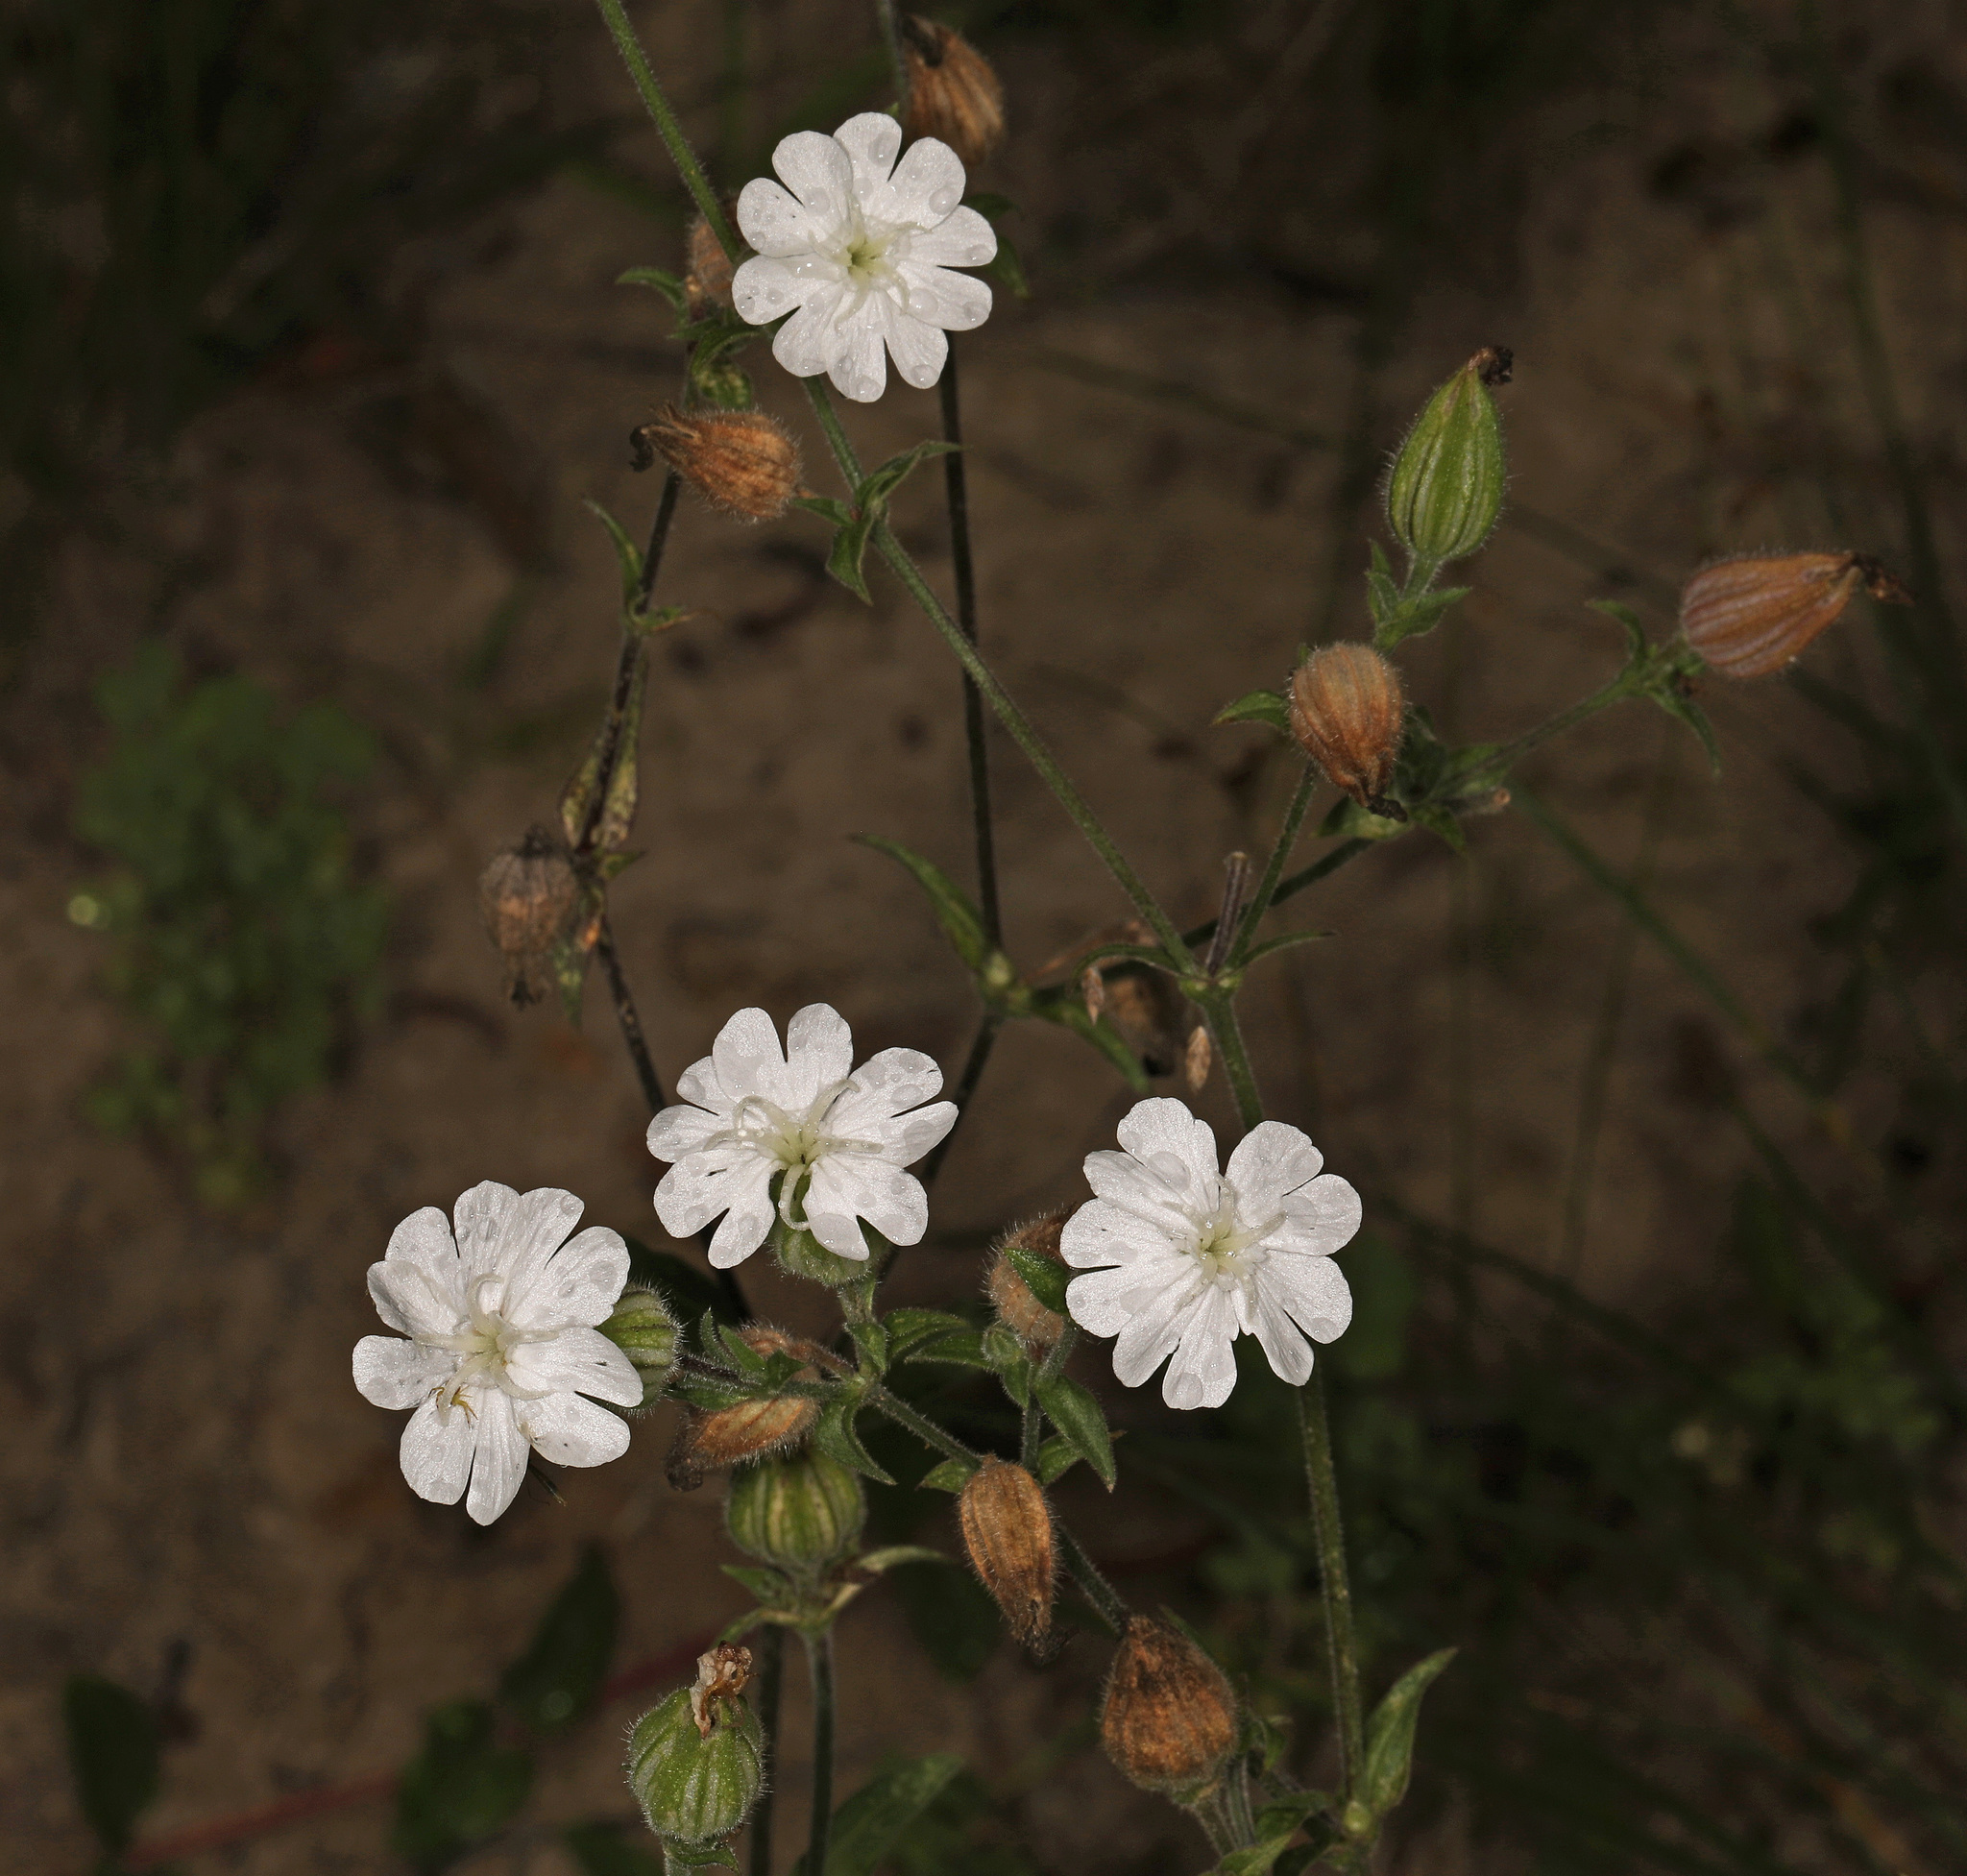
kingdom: Plantae
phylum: Tracheophyta
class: Magnoliopsida
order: Caryophyllales
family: Caryophyllaceae
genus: Silene
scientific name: Silene latifolia
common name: White campion
